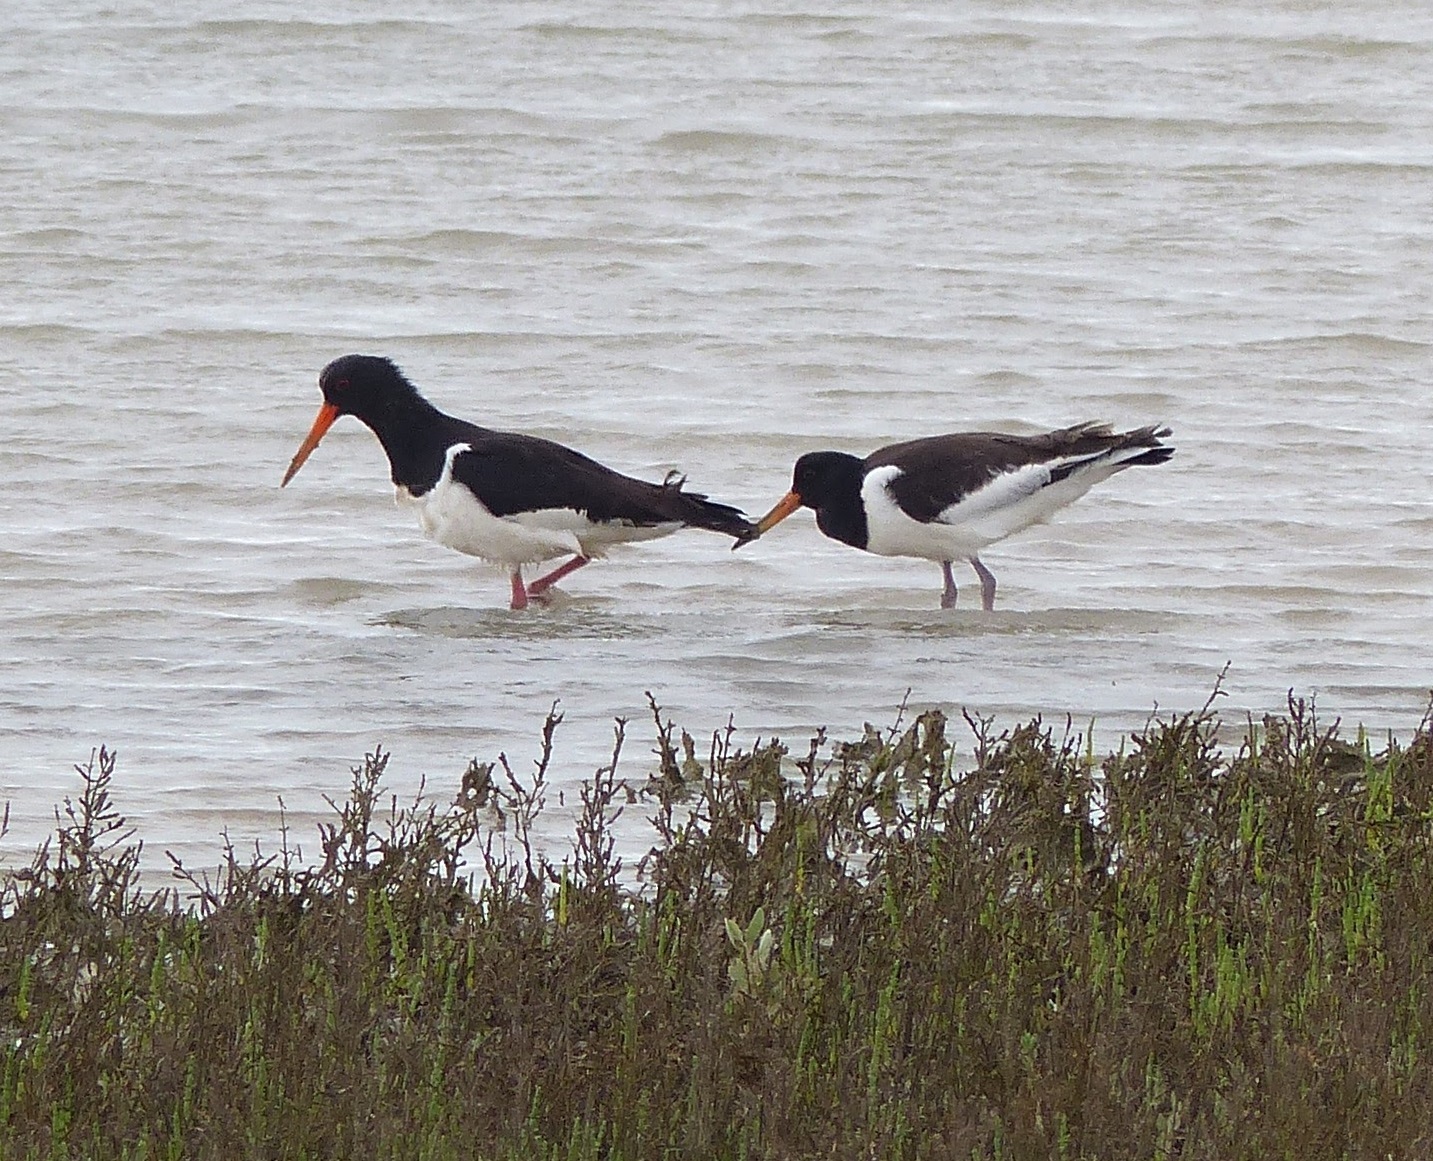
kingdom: Animalia
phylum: Chordata
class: Aves
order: Charadriiformes
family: Haematopodidae
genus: Haematopus
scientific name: Haematopus ostralegus
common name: Eurasian oystercatcher
